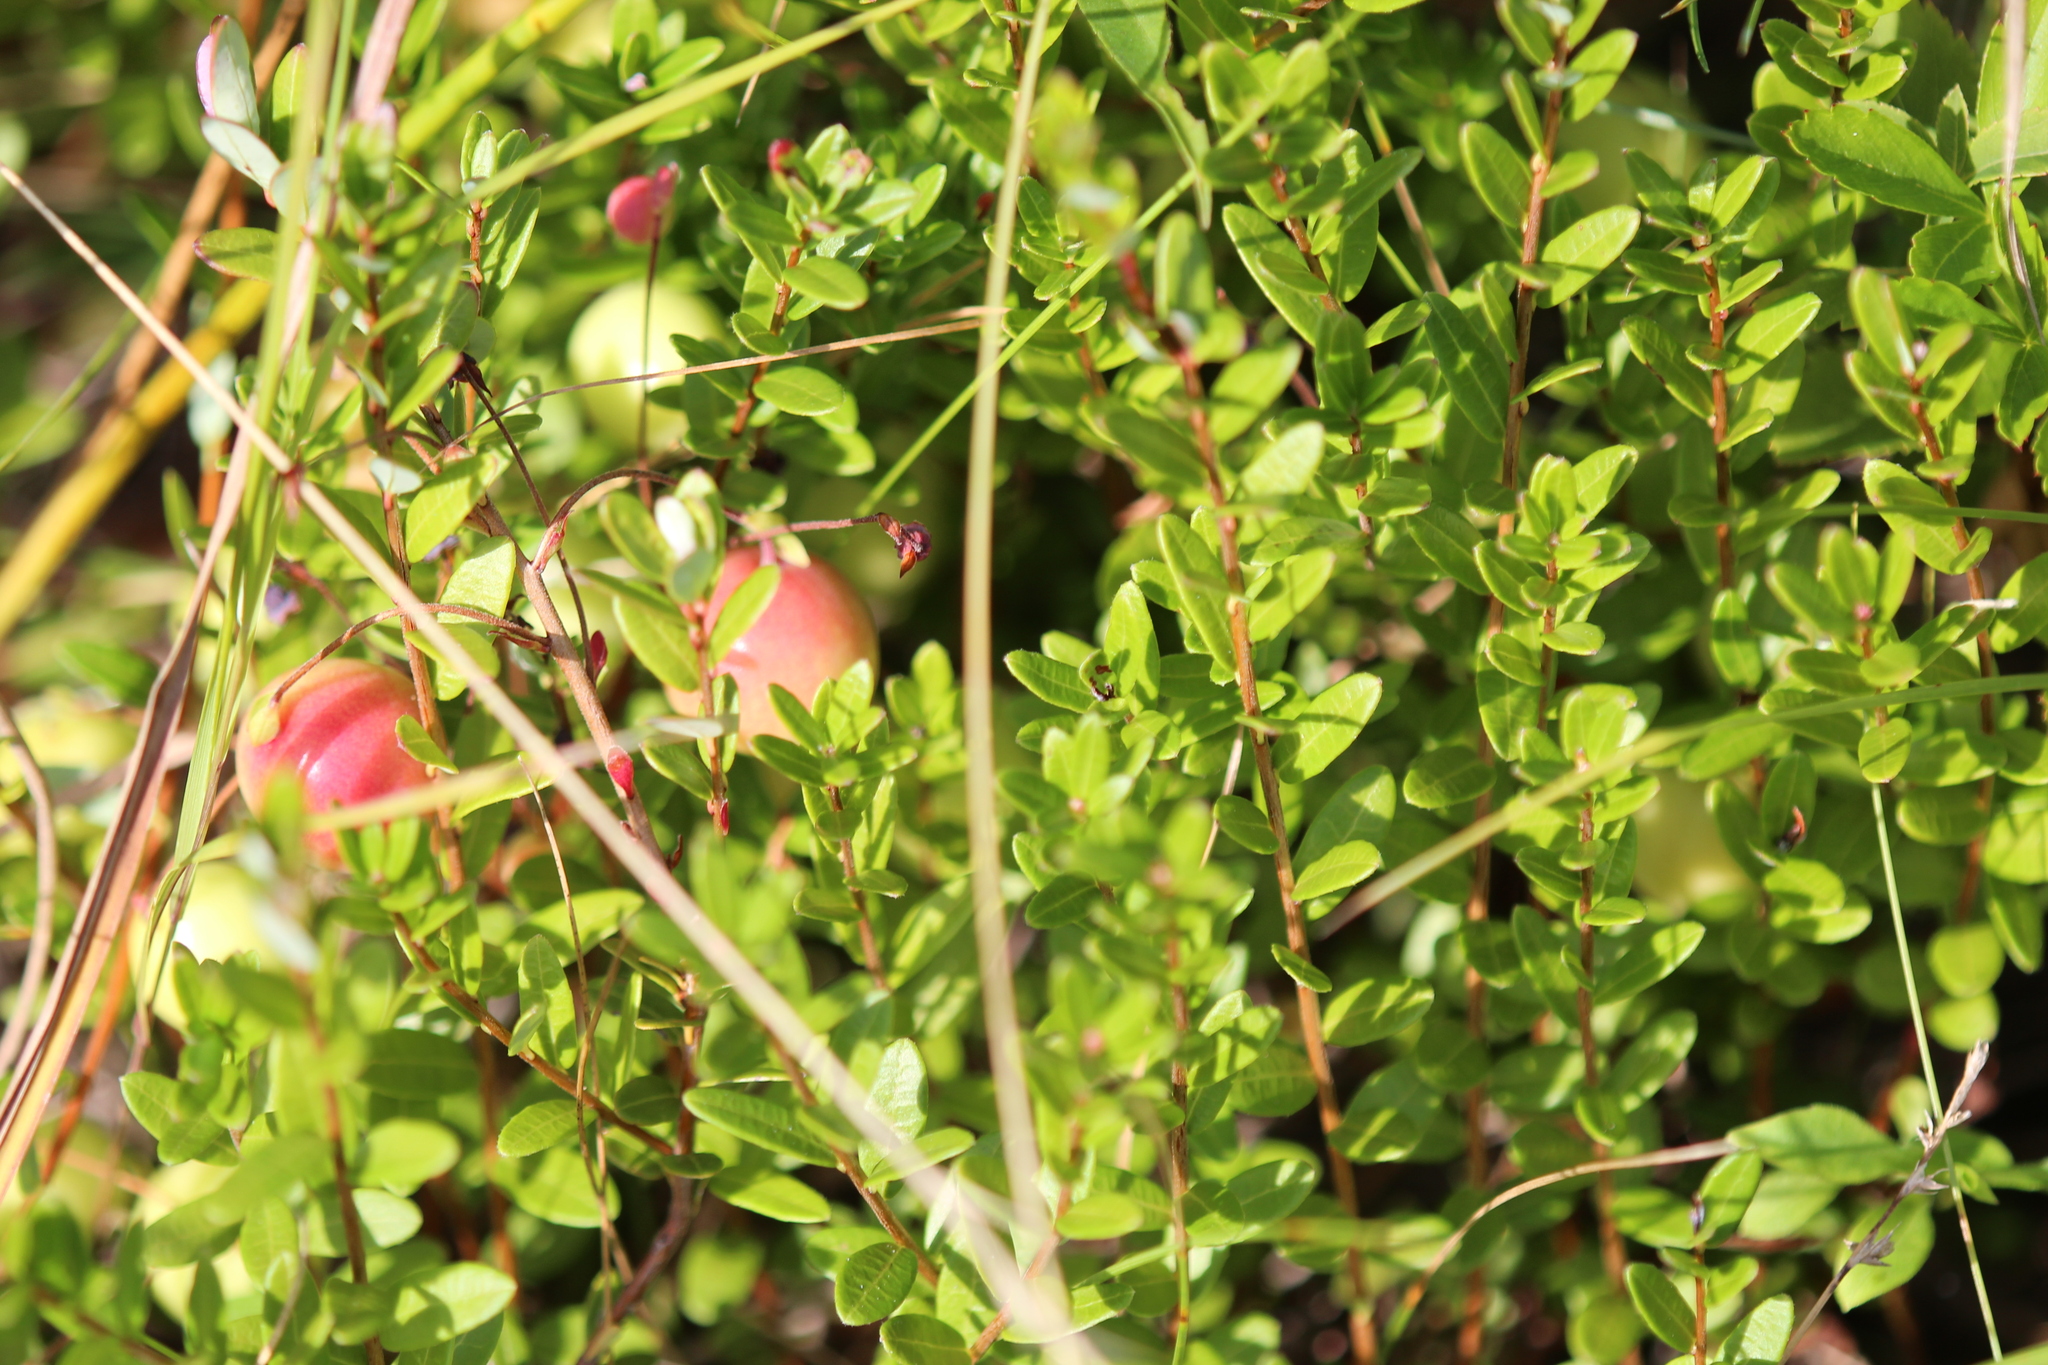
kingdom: Plantae
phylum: Tracheophyta
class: Magnoliopsida
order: Ericales
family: Ericaceae
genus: Vaccinium
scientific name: Vaccinium macrocarpon
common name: American cranberry
